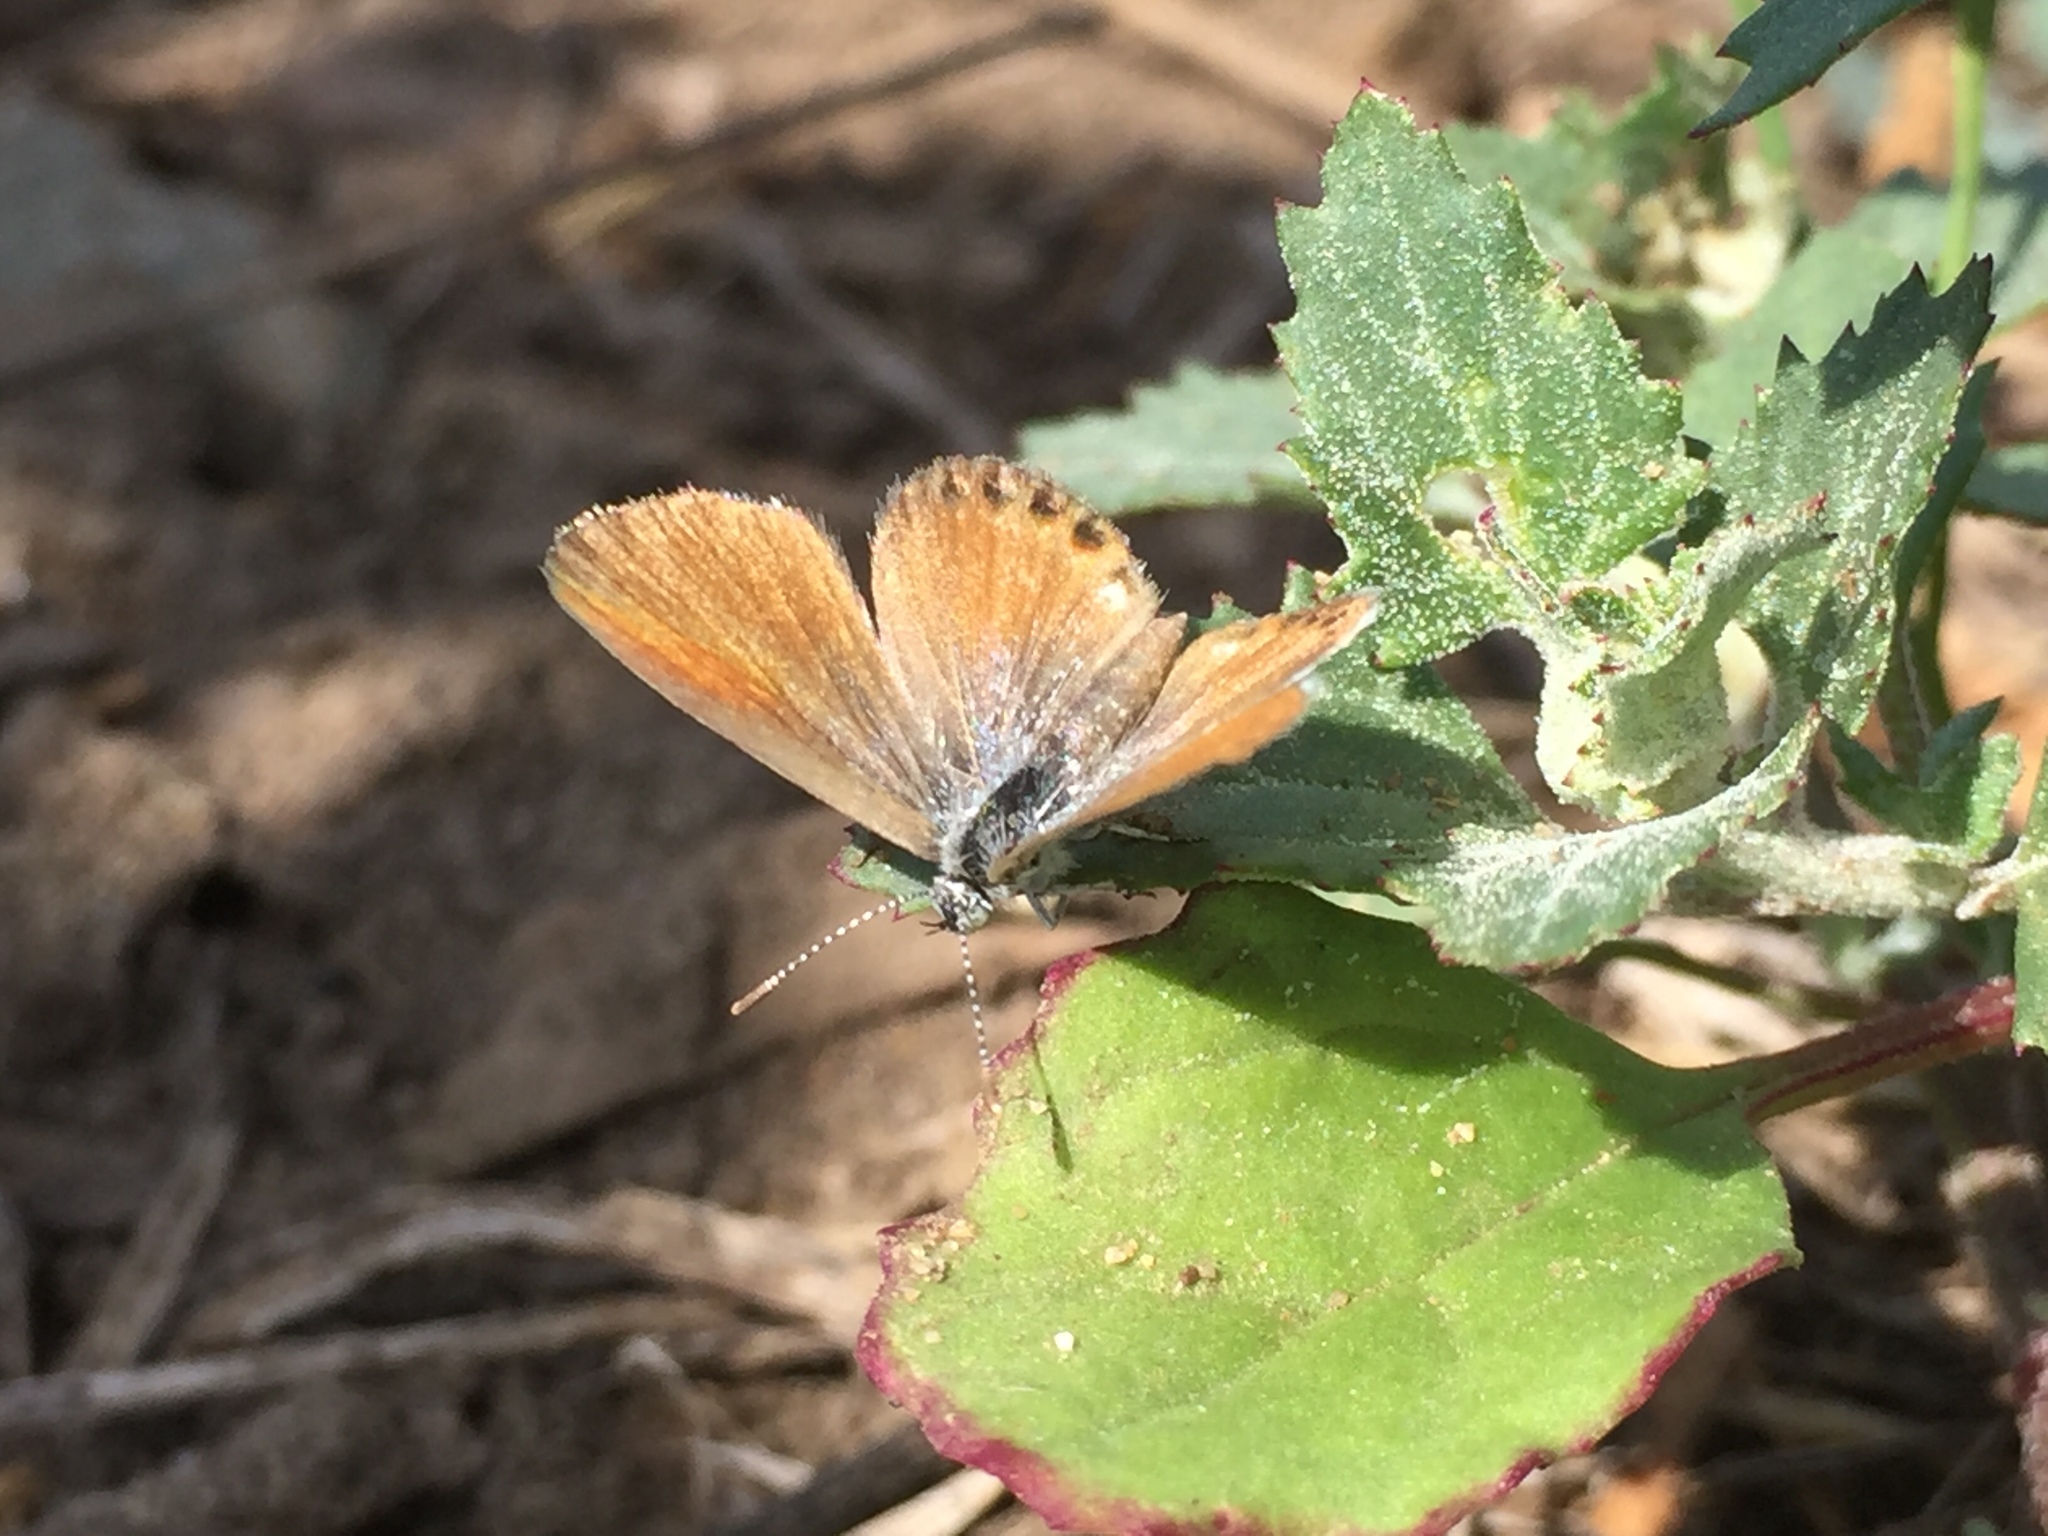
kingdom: Animalia
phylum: Arthropoda
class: Insecta
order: Lepidoptera
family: Lycaenidae
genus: Brephidium
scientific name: Brephidium exilis
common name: Pygmy blue
